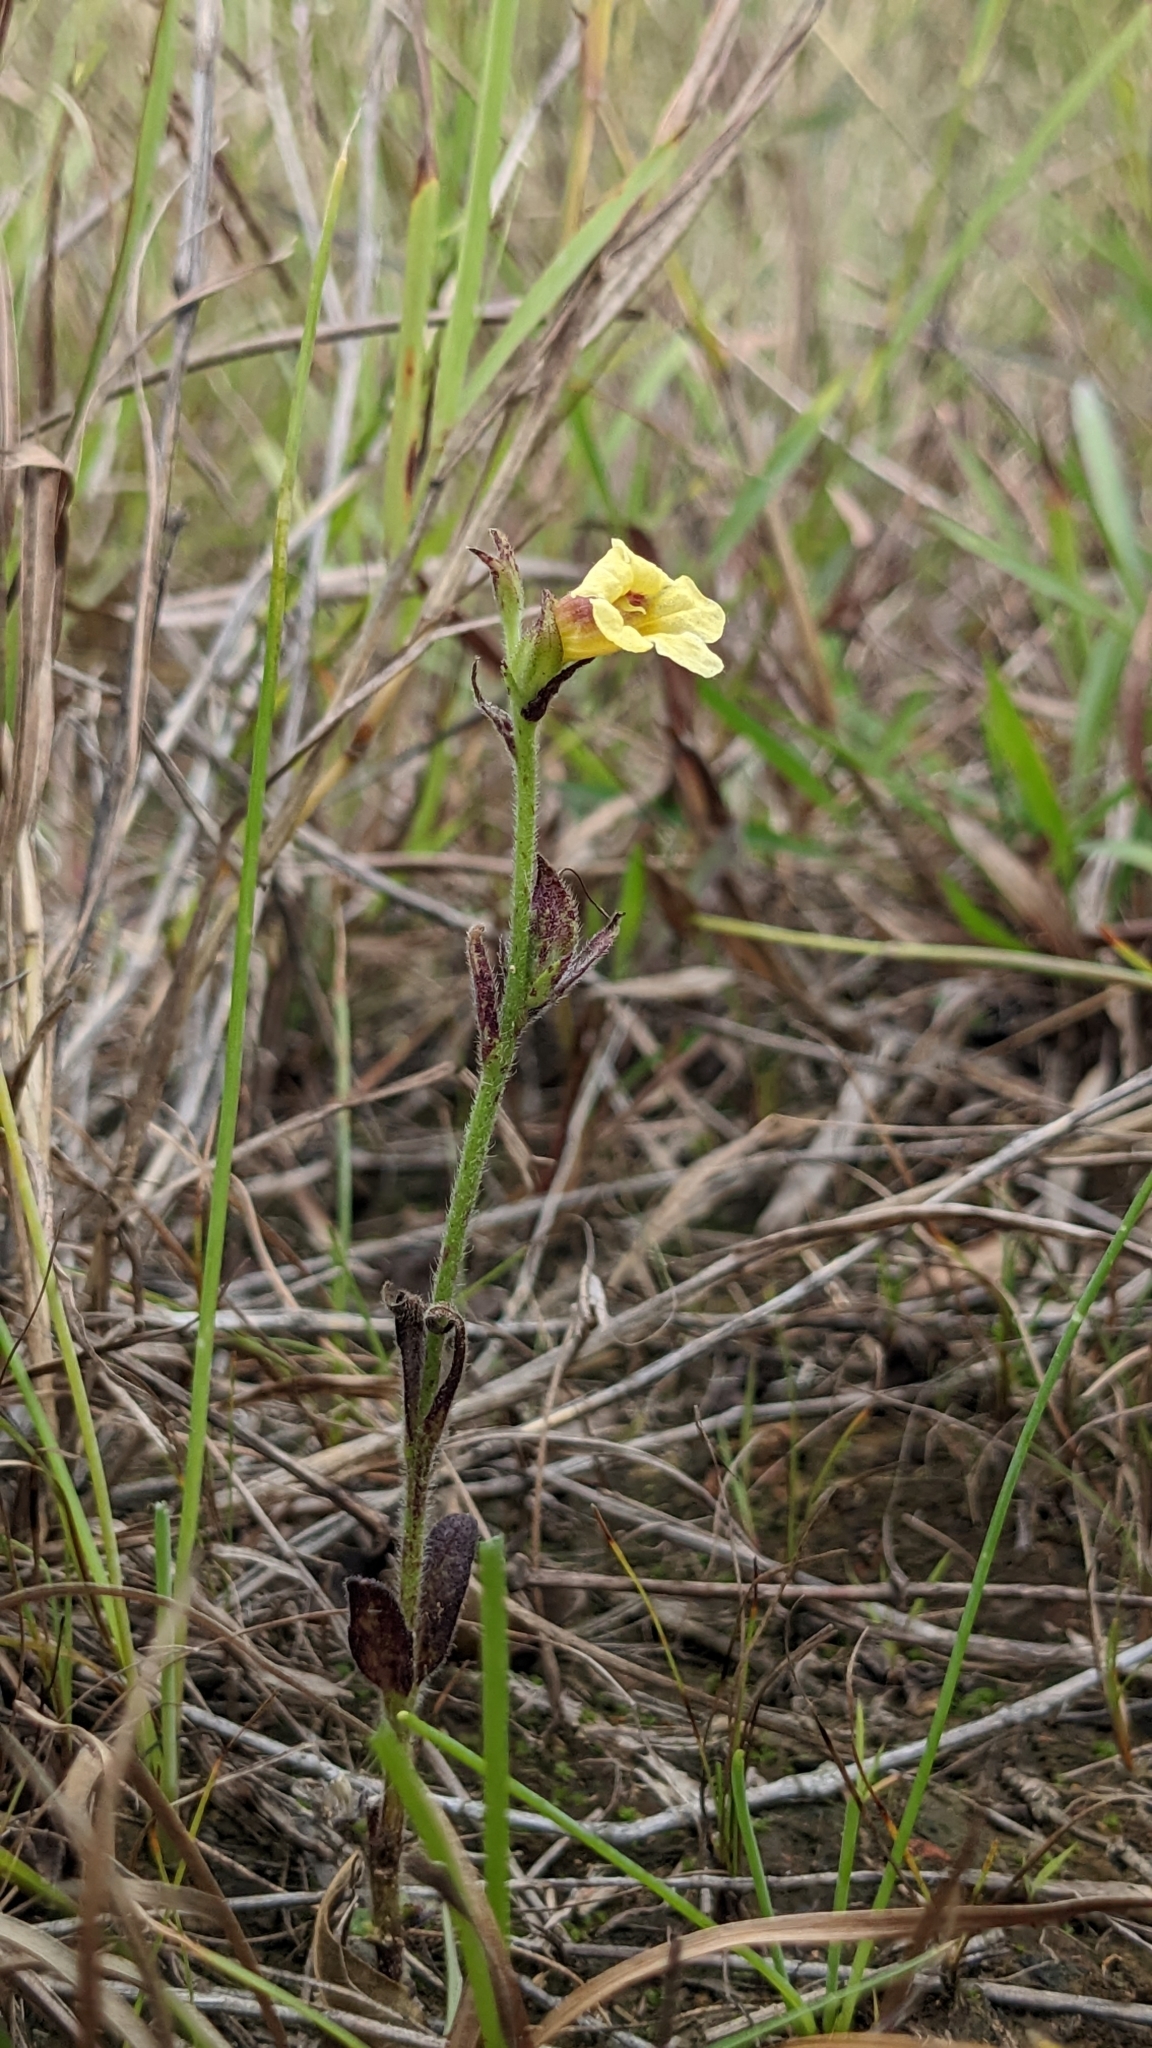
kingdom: Plantae
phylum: Tracheophyta
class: Magnoliopsida
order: Lamiales
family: Orobanchaceae
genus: Centranthera
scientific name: Centranthera cochinchinensis
